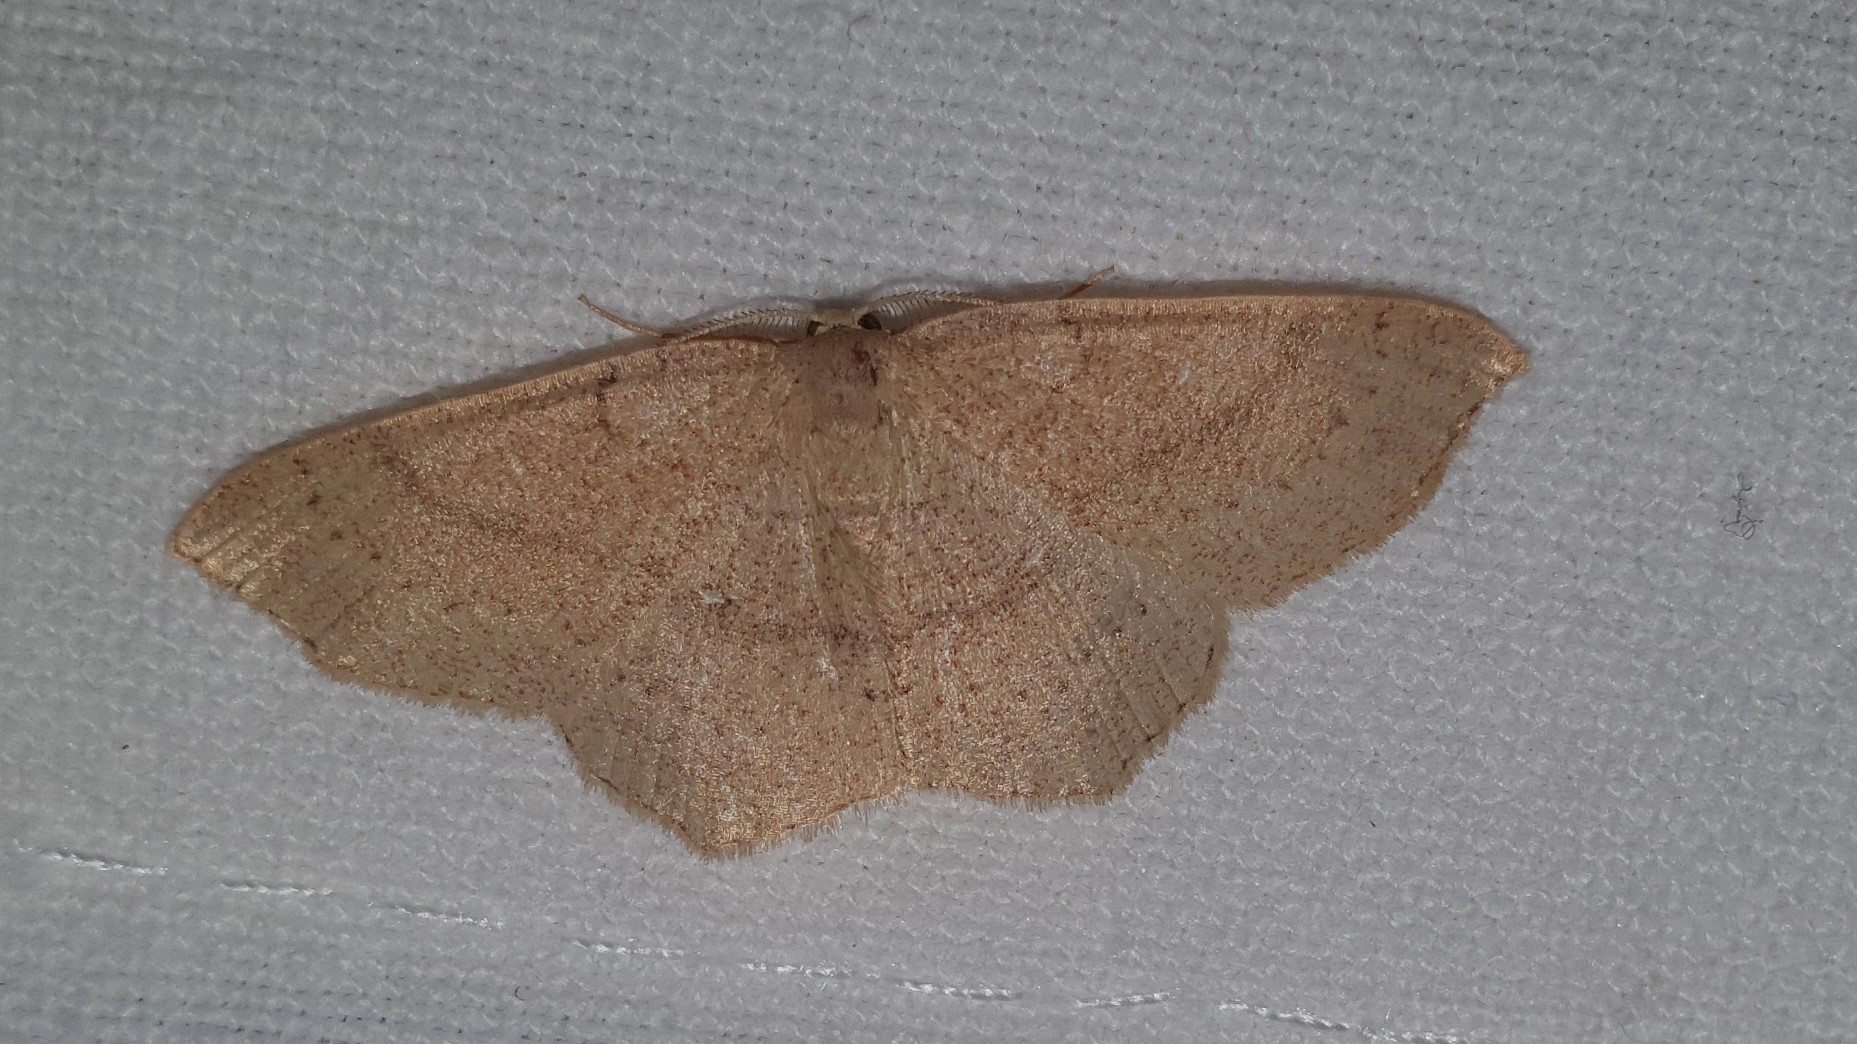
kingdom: Animalia
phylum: Arthropoda
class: Insecta
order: Lepidoptera
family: Geometridae
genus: Cyclophora
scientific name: Cyclophora suppunctaria
